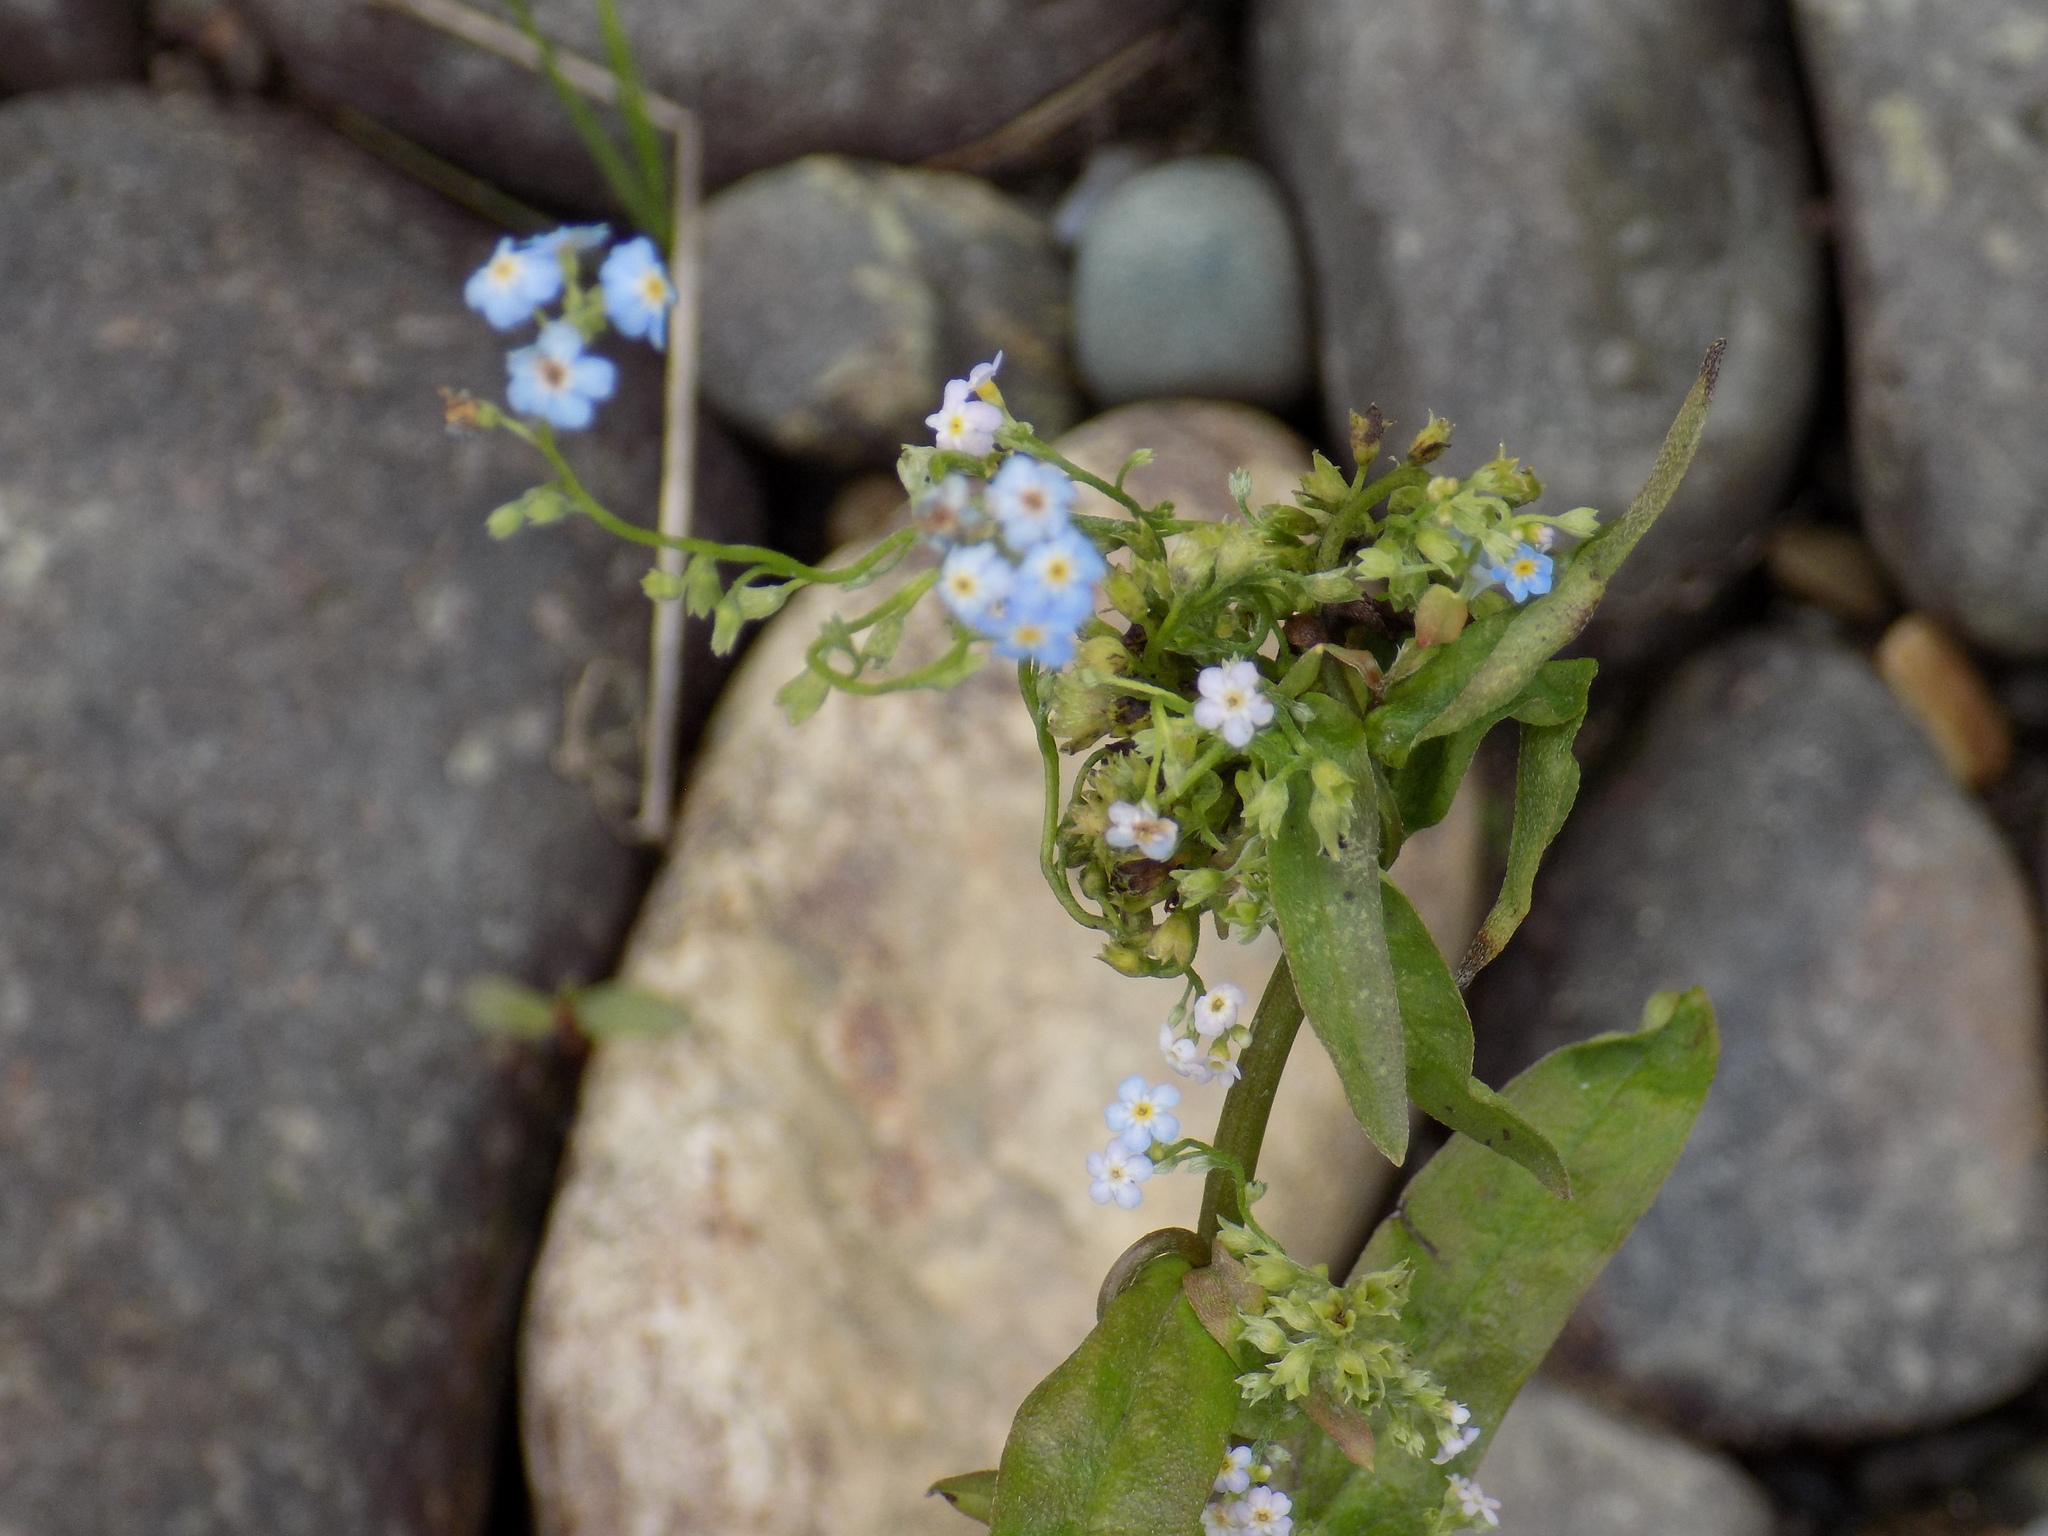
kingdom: Plantae
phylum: Tracheophyta
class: Magnoliopsida
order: Boraginales
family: Boraginaceae
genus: Myosotis
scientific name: Myosotis scorpioides
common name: Water forget-me-not
